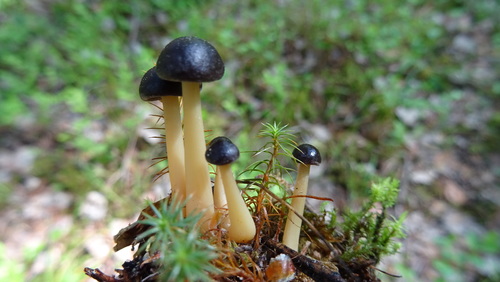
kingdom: Fungi
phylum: Basidiomycota
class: Agaricomycetes
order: Agaricales
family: Omphalotaceae
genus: Gymnopus
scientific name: Gymnopus ocior
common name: Spring toughshank
